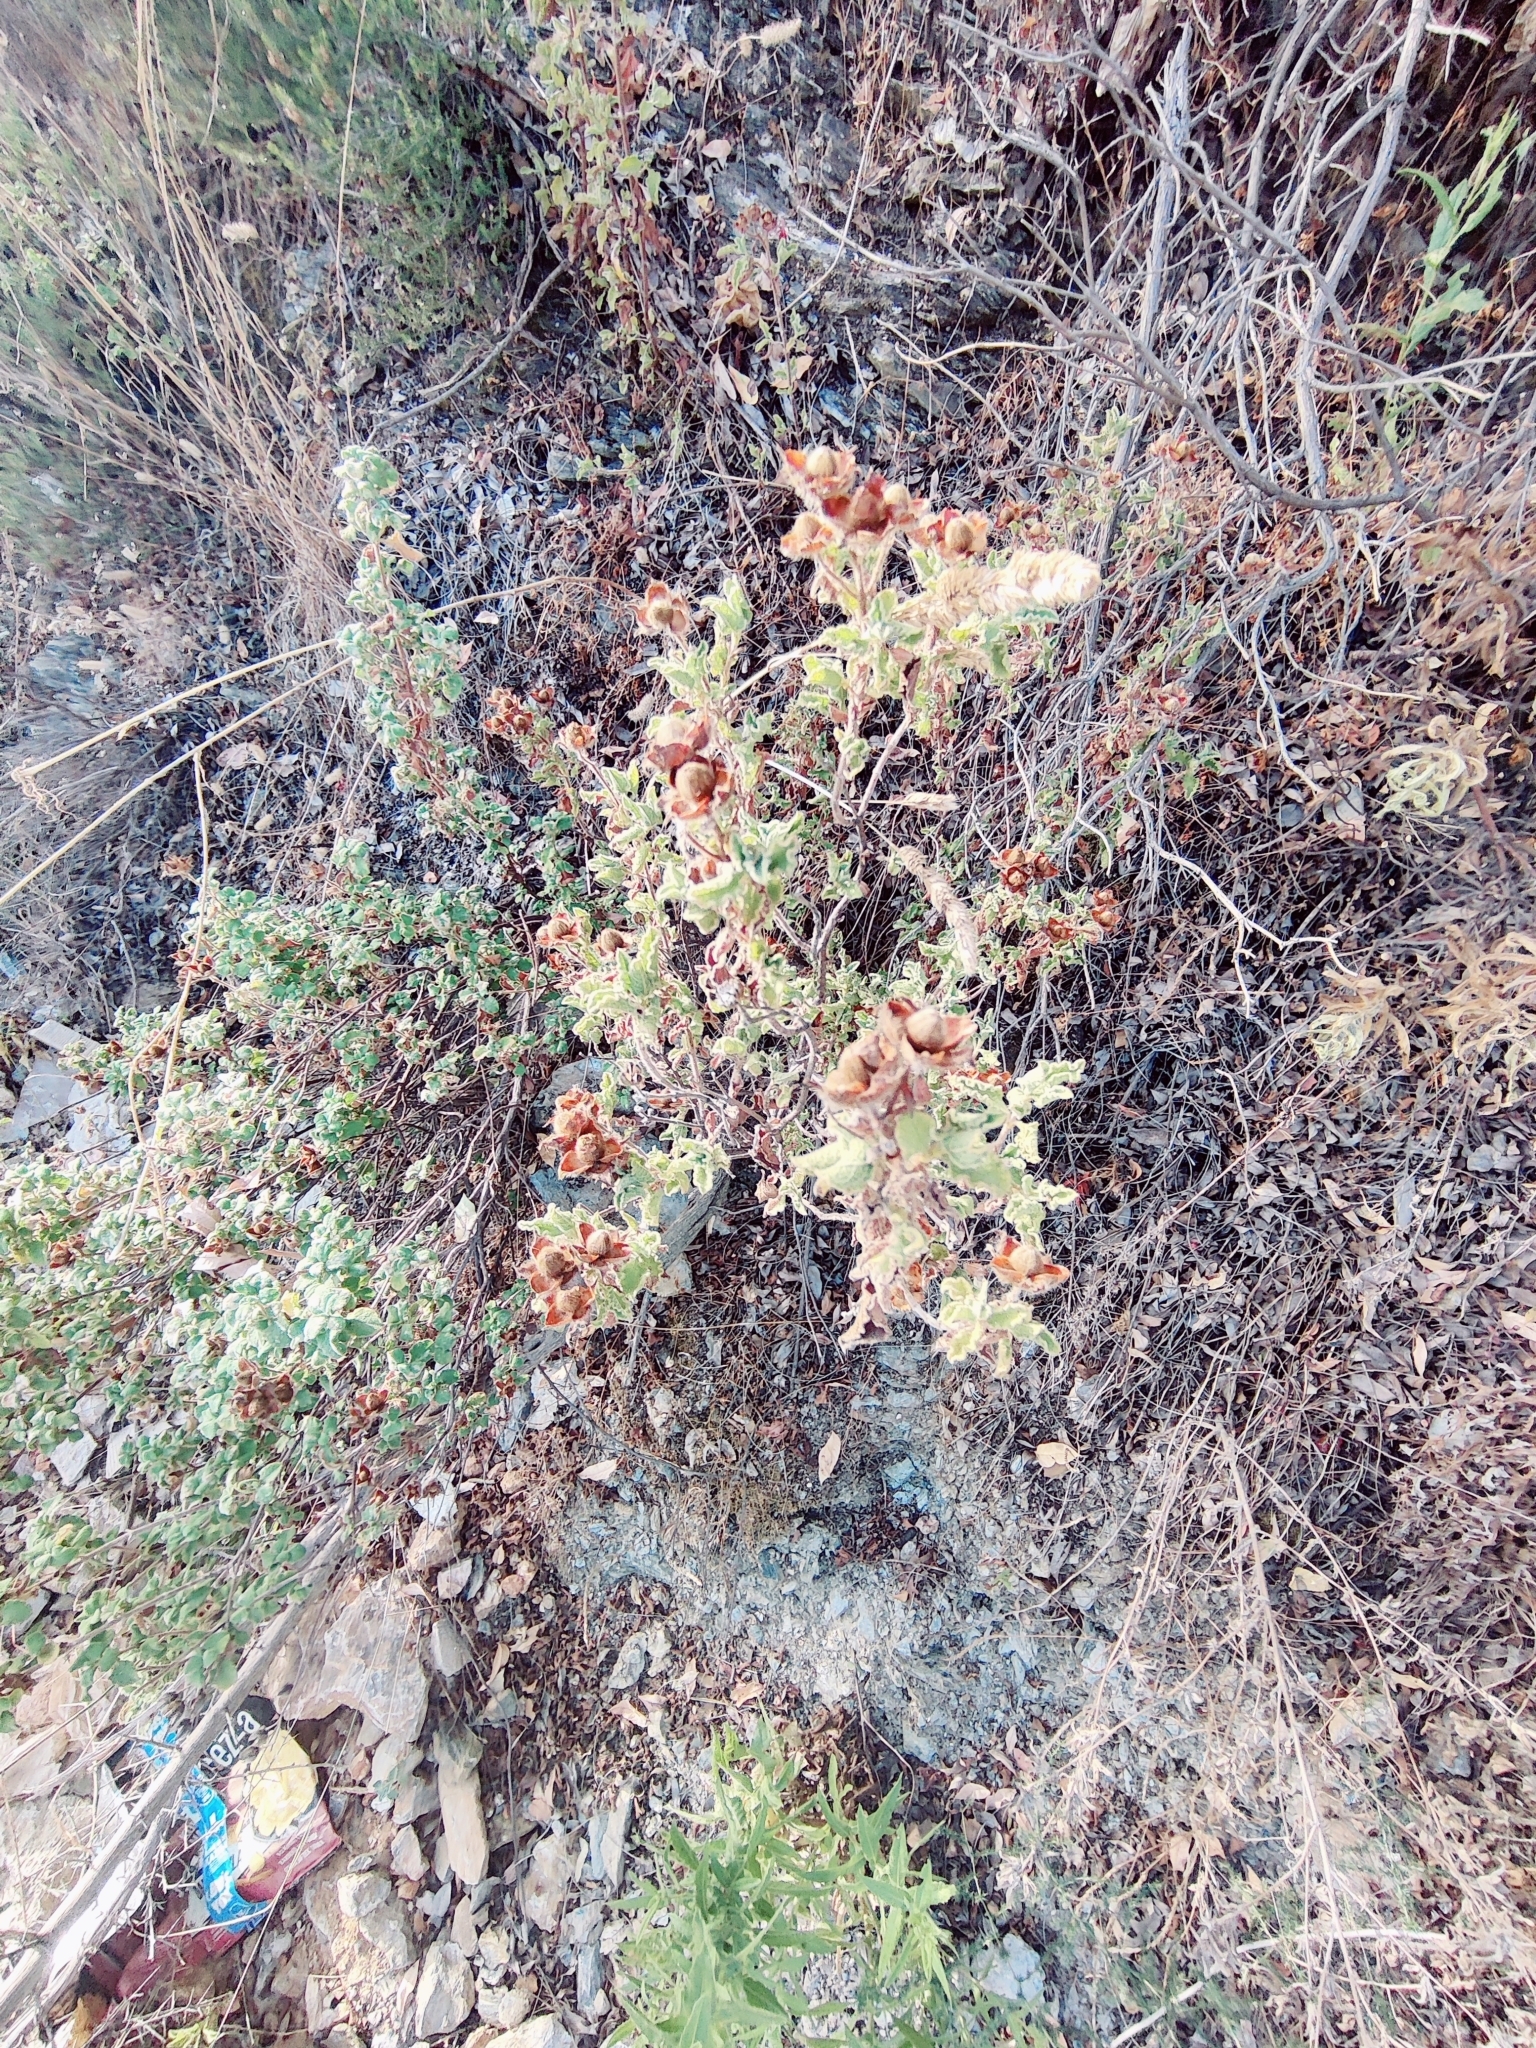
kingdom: Plantae
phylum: Tracheophyta
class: Magnoliopsida
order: Malvales
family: Cistaceae
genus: Cistus
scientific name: Cistus creticus
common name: Cretan rockrose
